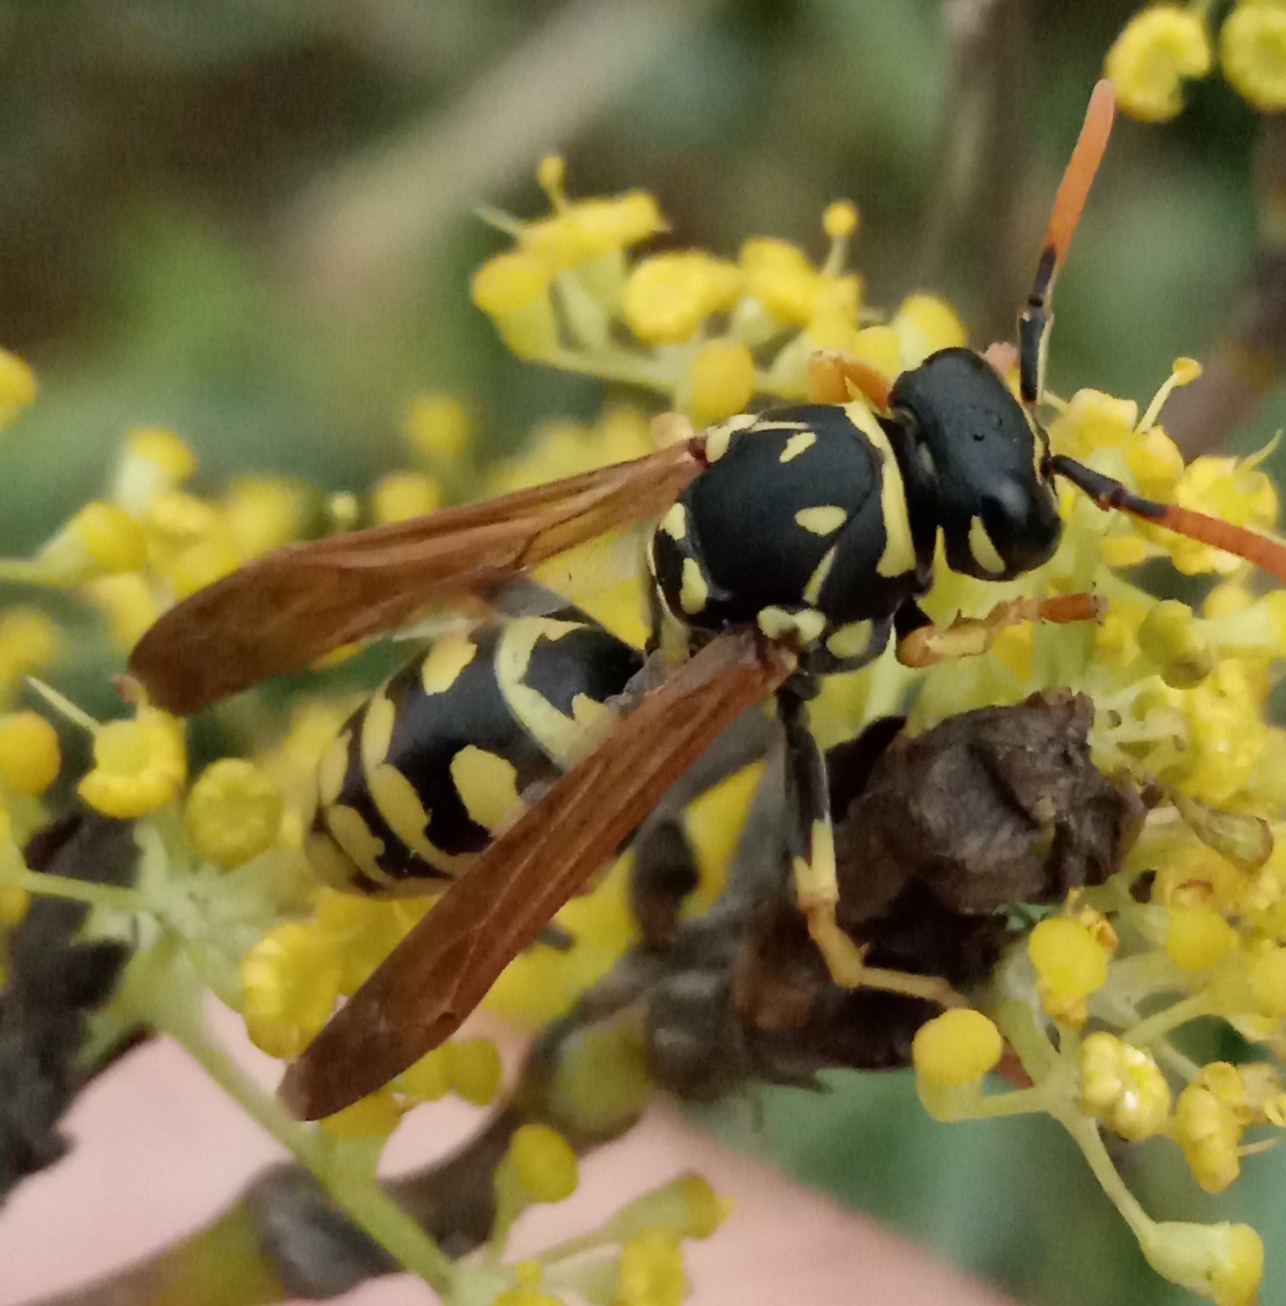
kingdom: Animalia
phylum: Arthropoda
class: Insecta
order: Hymenoptera
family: Eumenidae
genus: Polistes
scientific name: Polistes dominula
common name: Paper wasp
